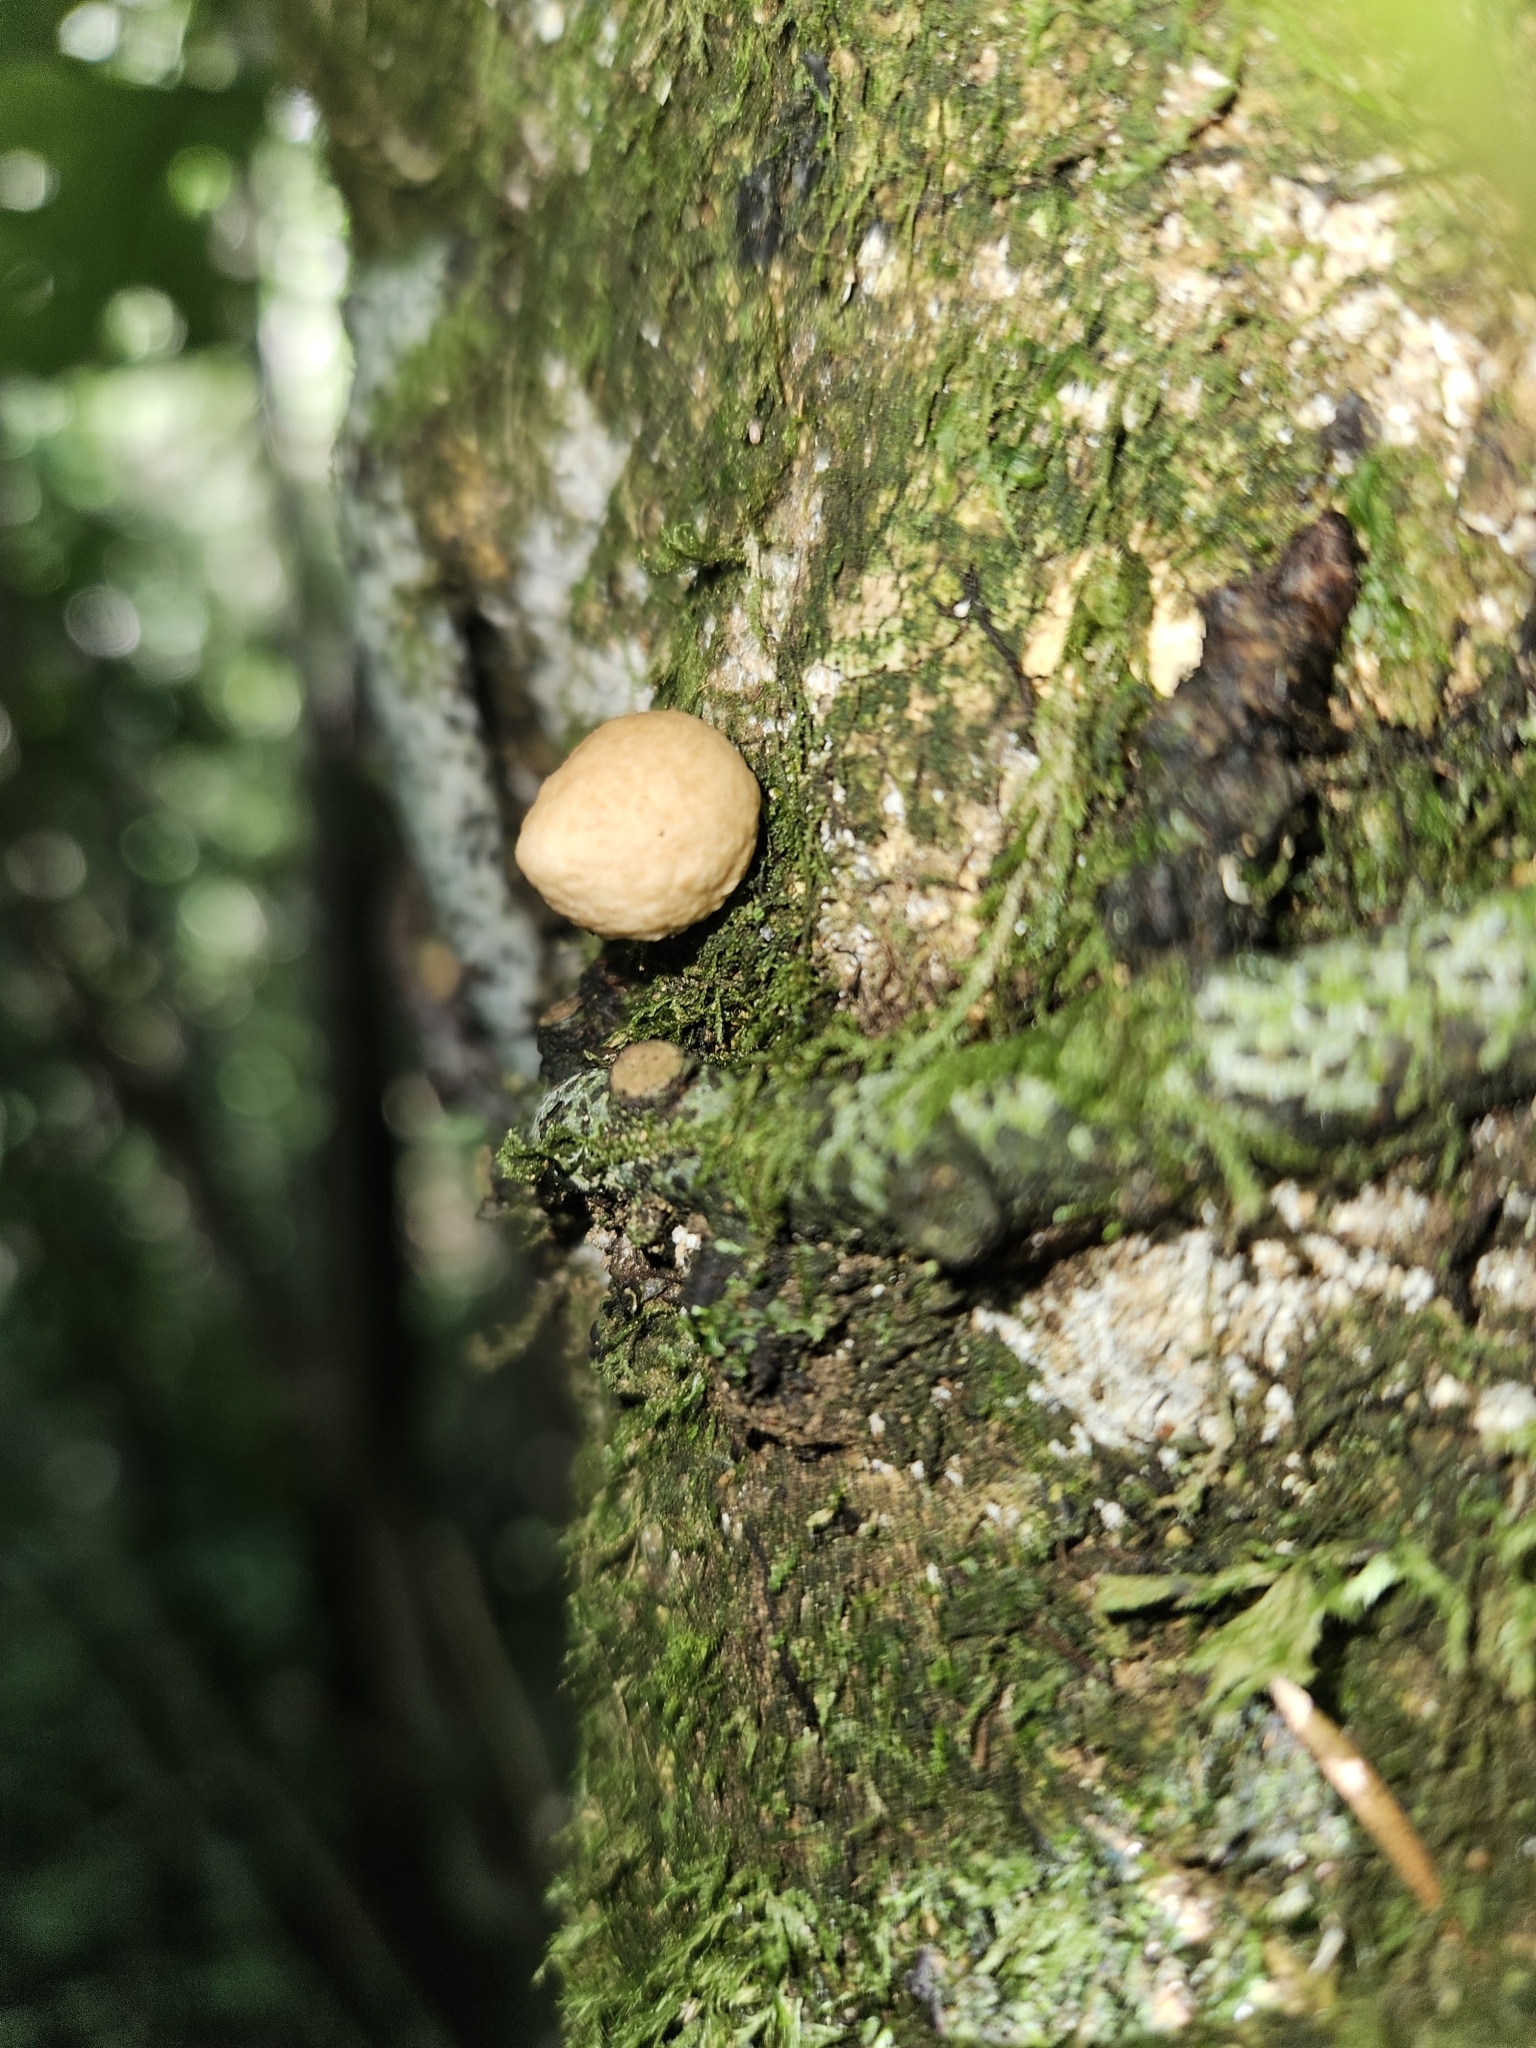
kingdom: Fungi
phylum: Basidiomycota
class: Agaricomycetes
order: Agaricales
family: Lycoperdaceae
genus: Lycoperdon
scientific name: Lycoperdon
